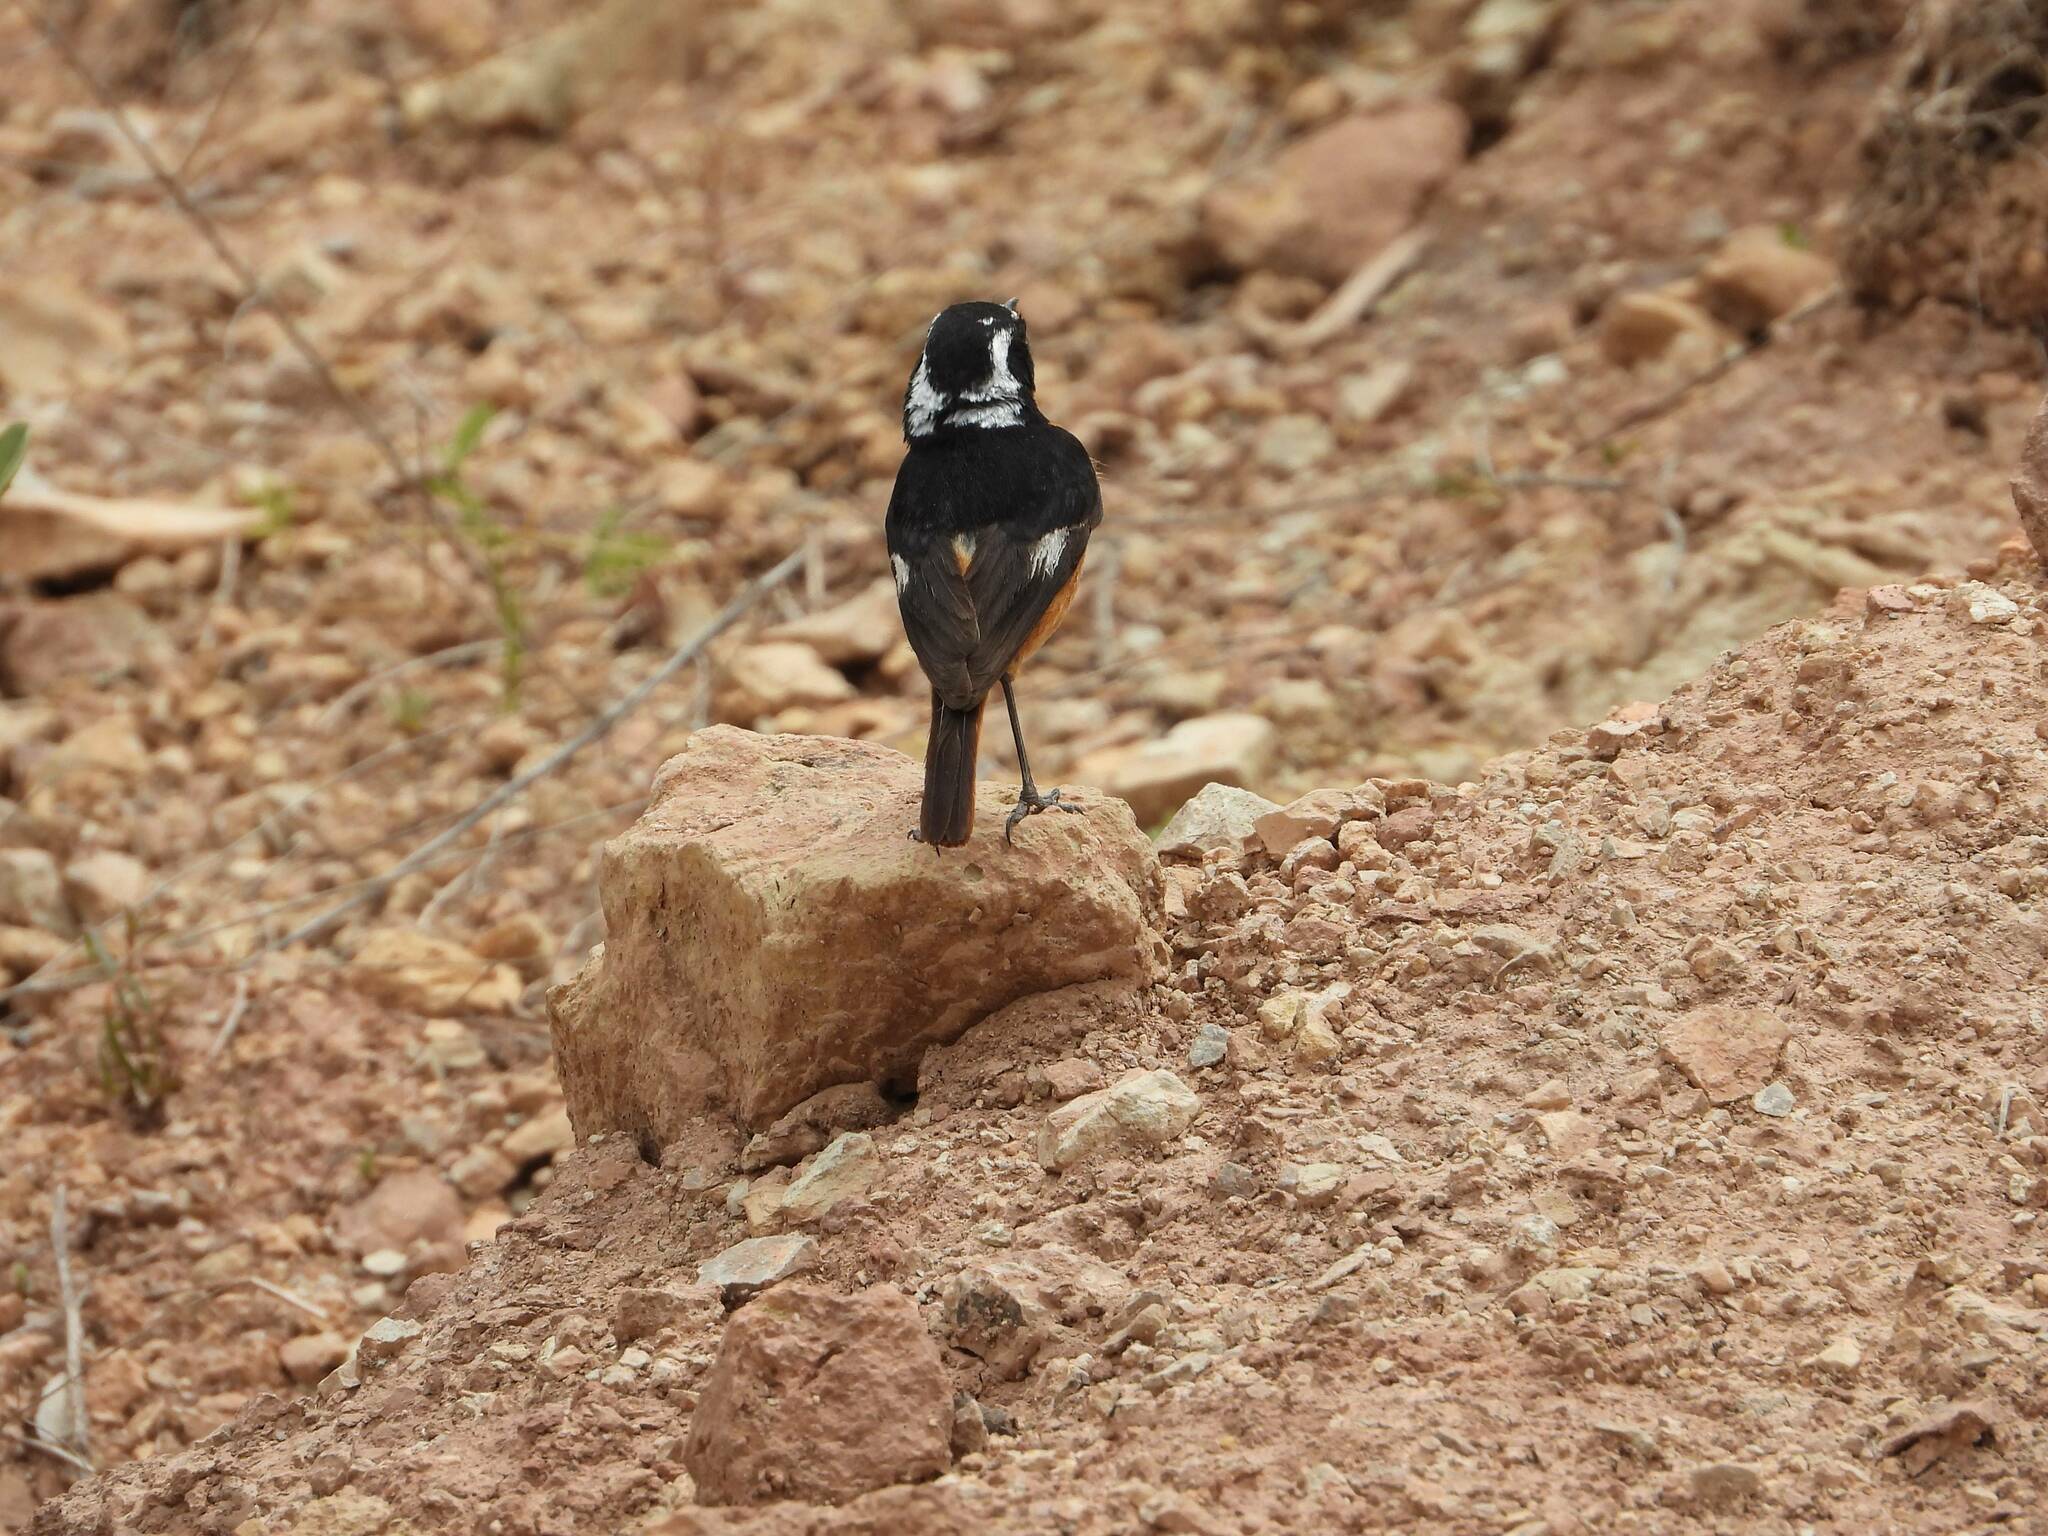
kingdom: Animalia
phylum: Chordata
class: Aves
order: Passeriformes
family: Muscicapidae
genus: Phoenicurus
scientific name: Phoenicurus moussieri
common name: Moussier's redstart
